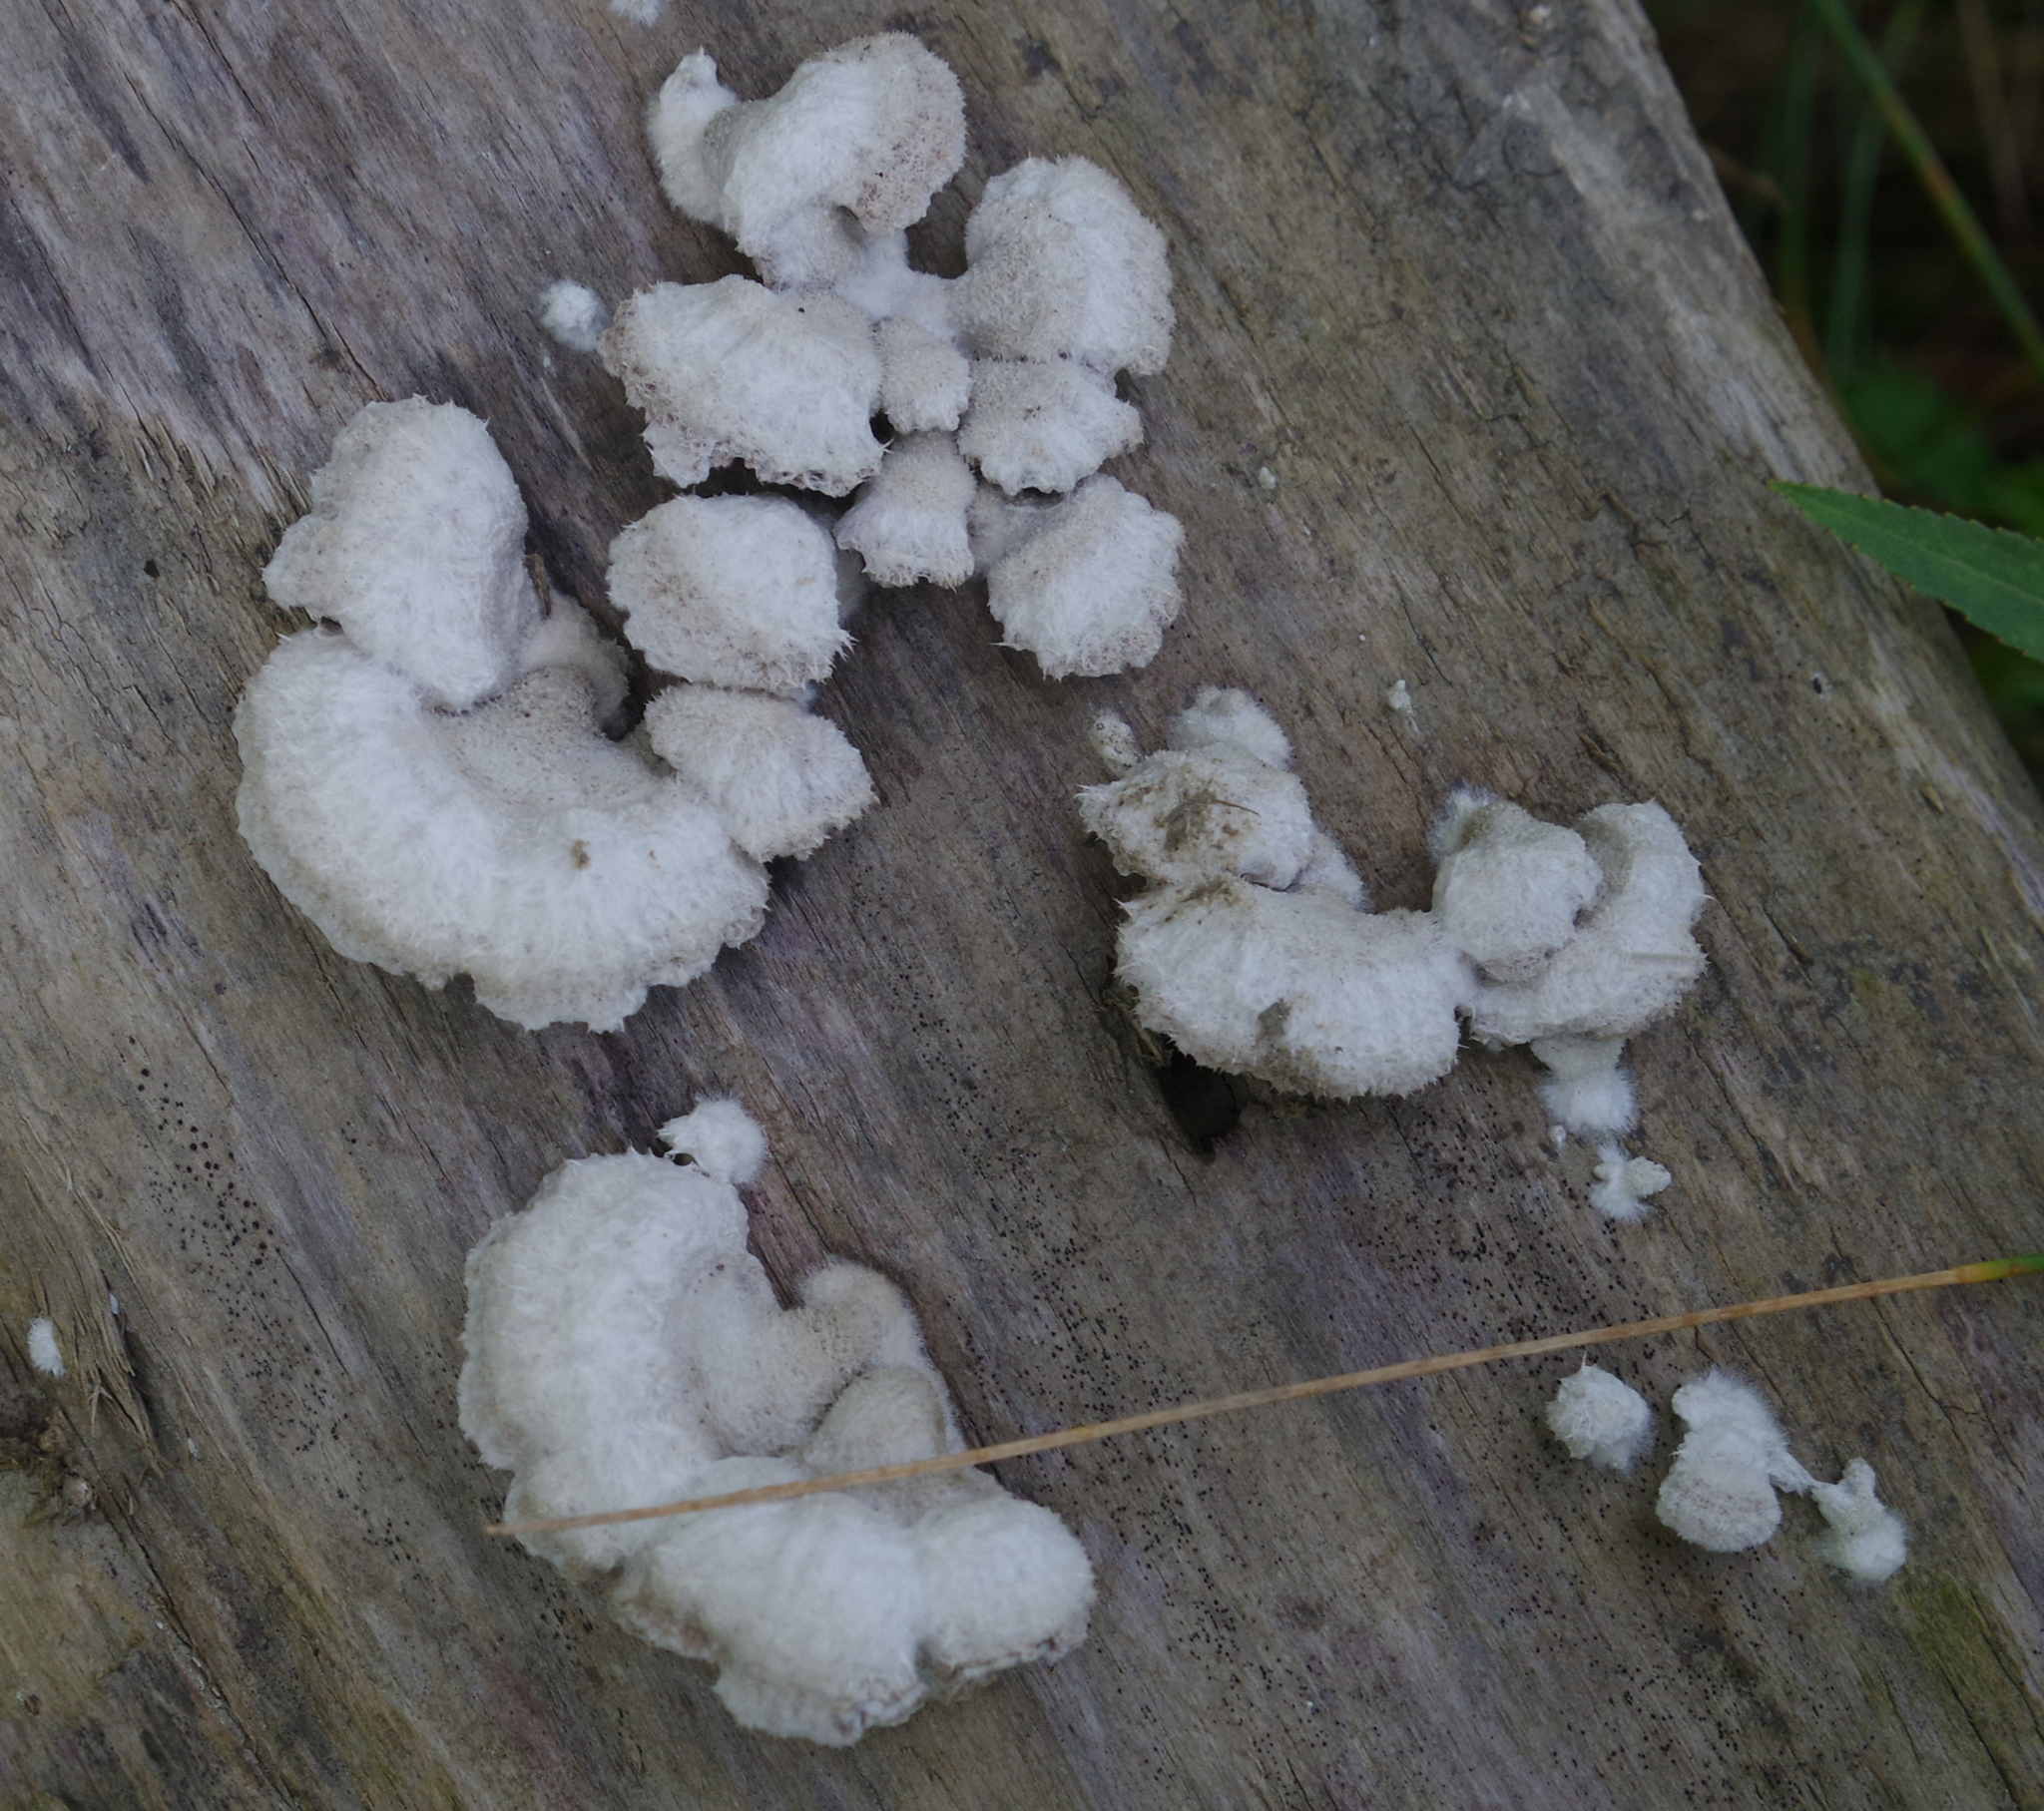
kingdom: Fungi
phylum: Basidiomycota
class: Agaricomycetes
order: Agaricales
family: Schizophyllaceae
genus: Schizophyllum
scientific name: Schizophyllum commune
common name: Common porecrust
